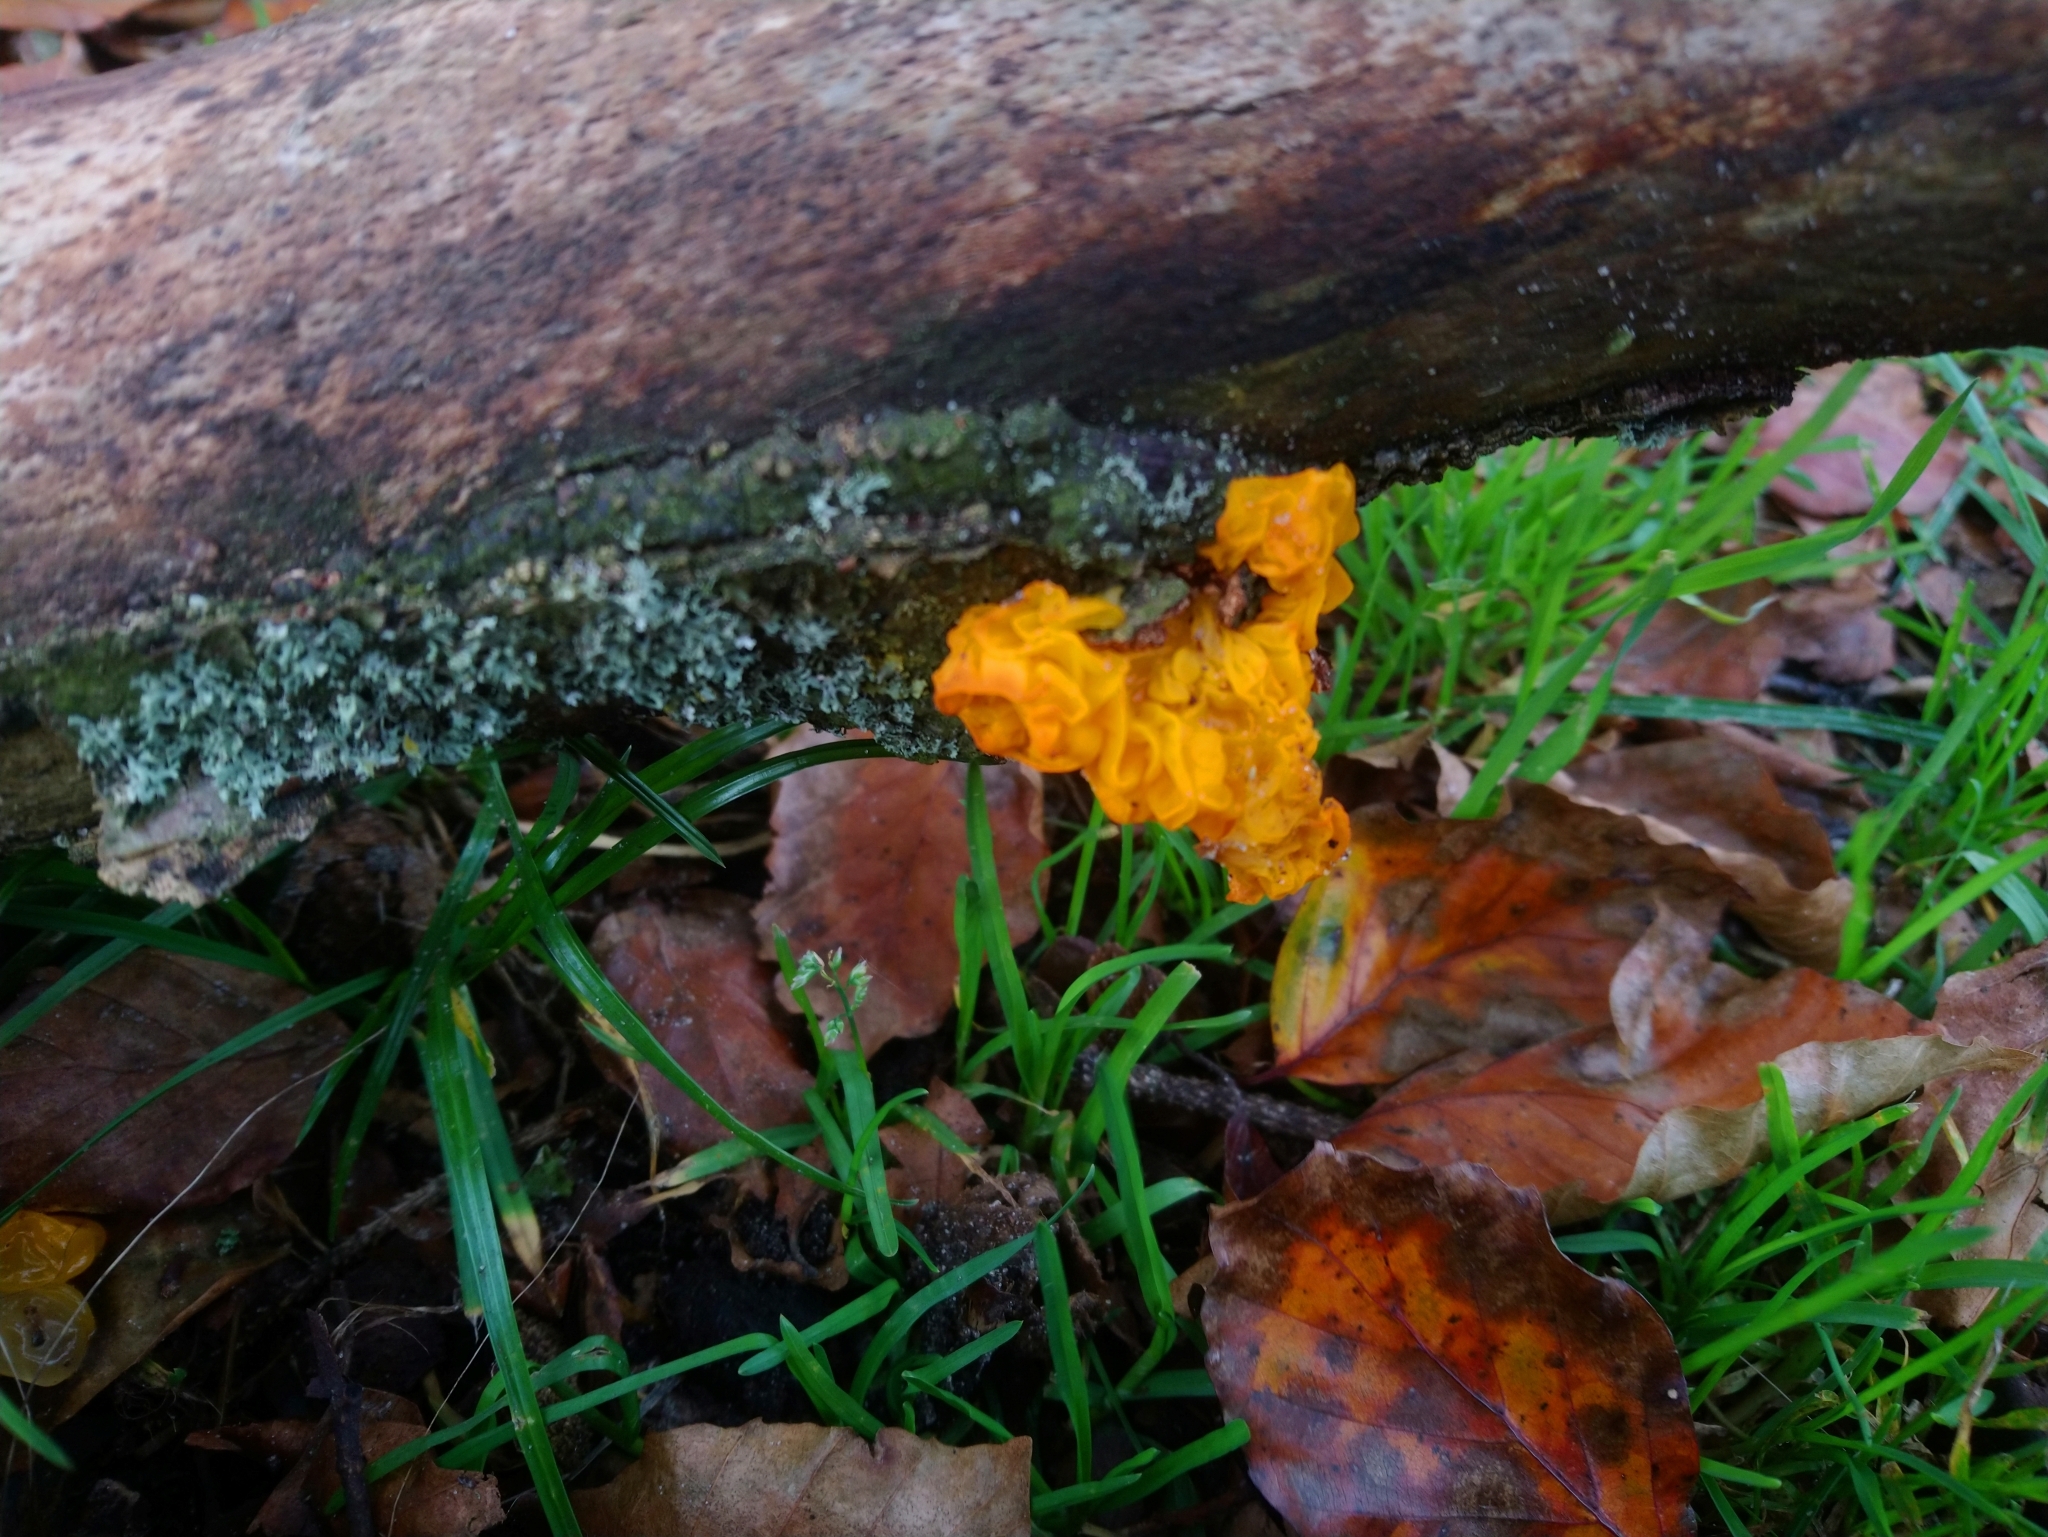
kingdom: Fungi
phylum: Basidiomycota
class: Tremellomycetes
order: Tremellales
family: Tremellaceae
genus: Tremella
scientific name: Tremella mesenterica
